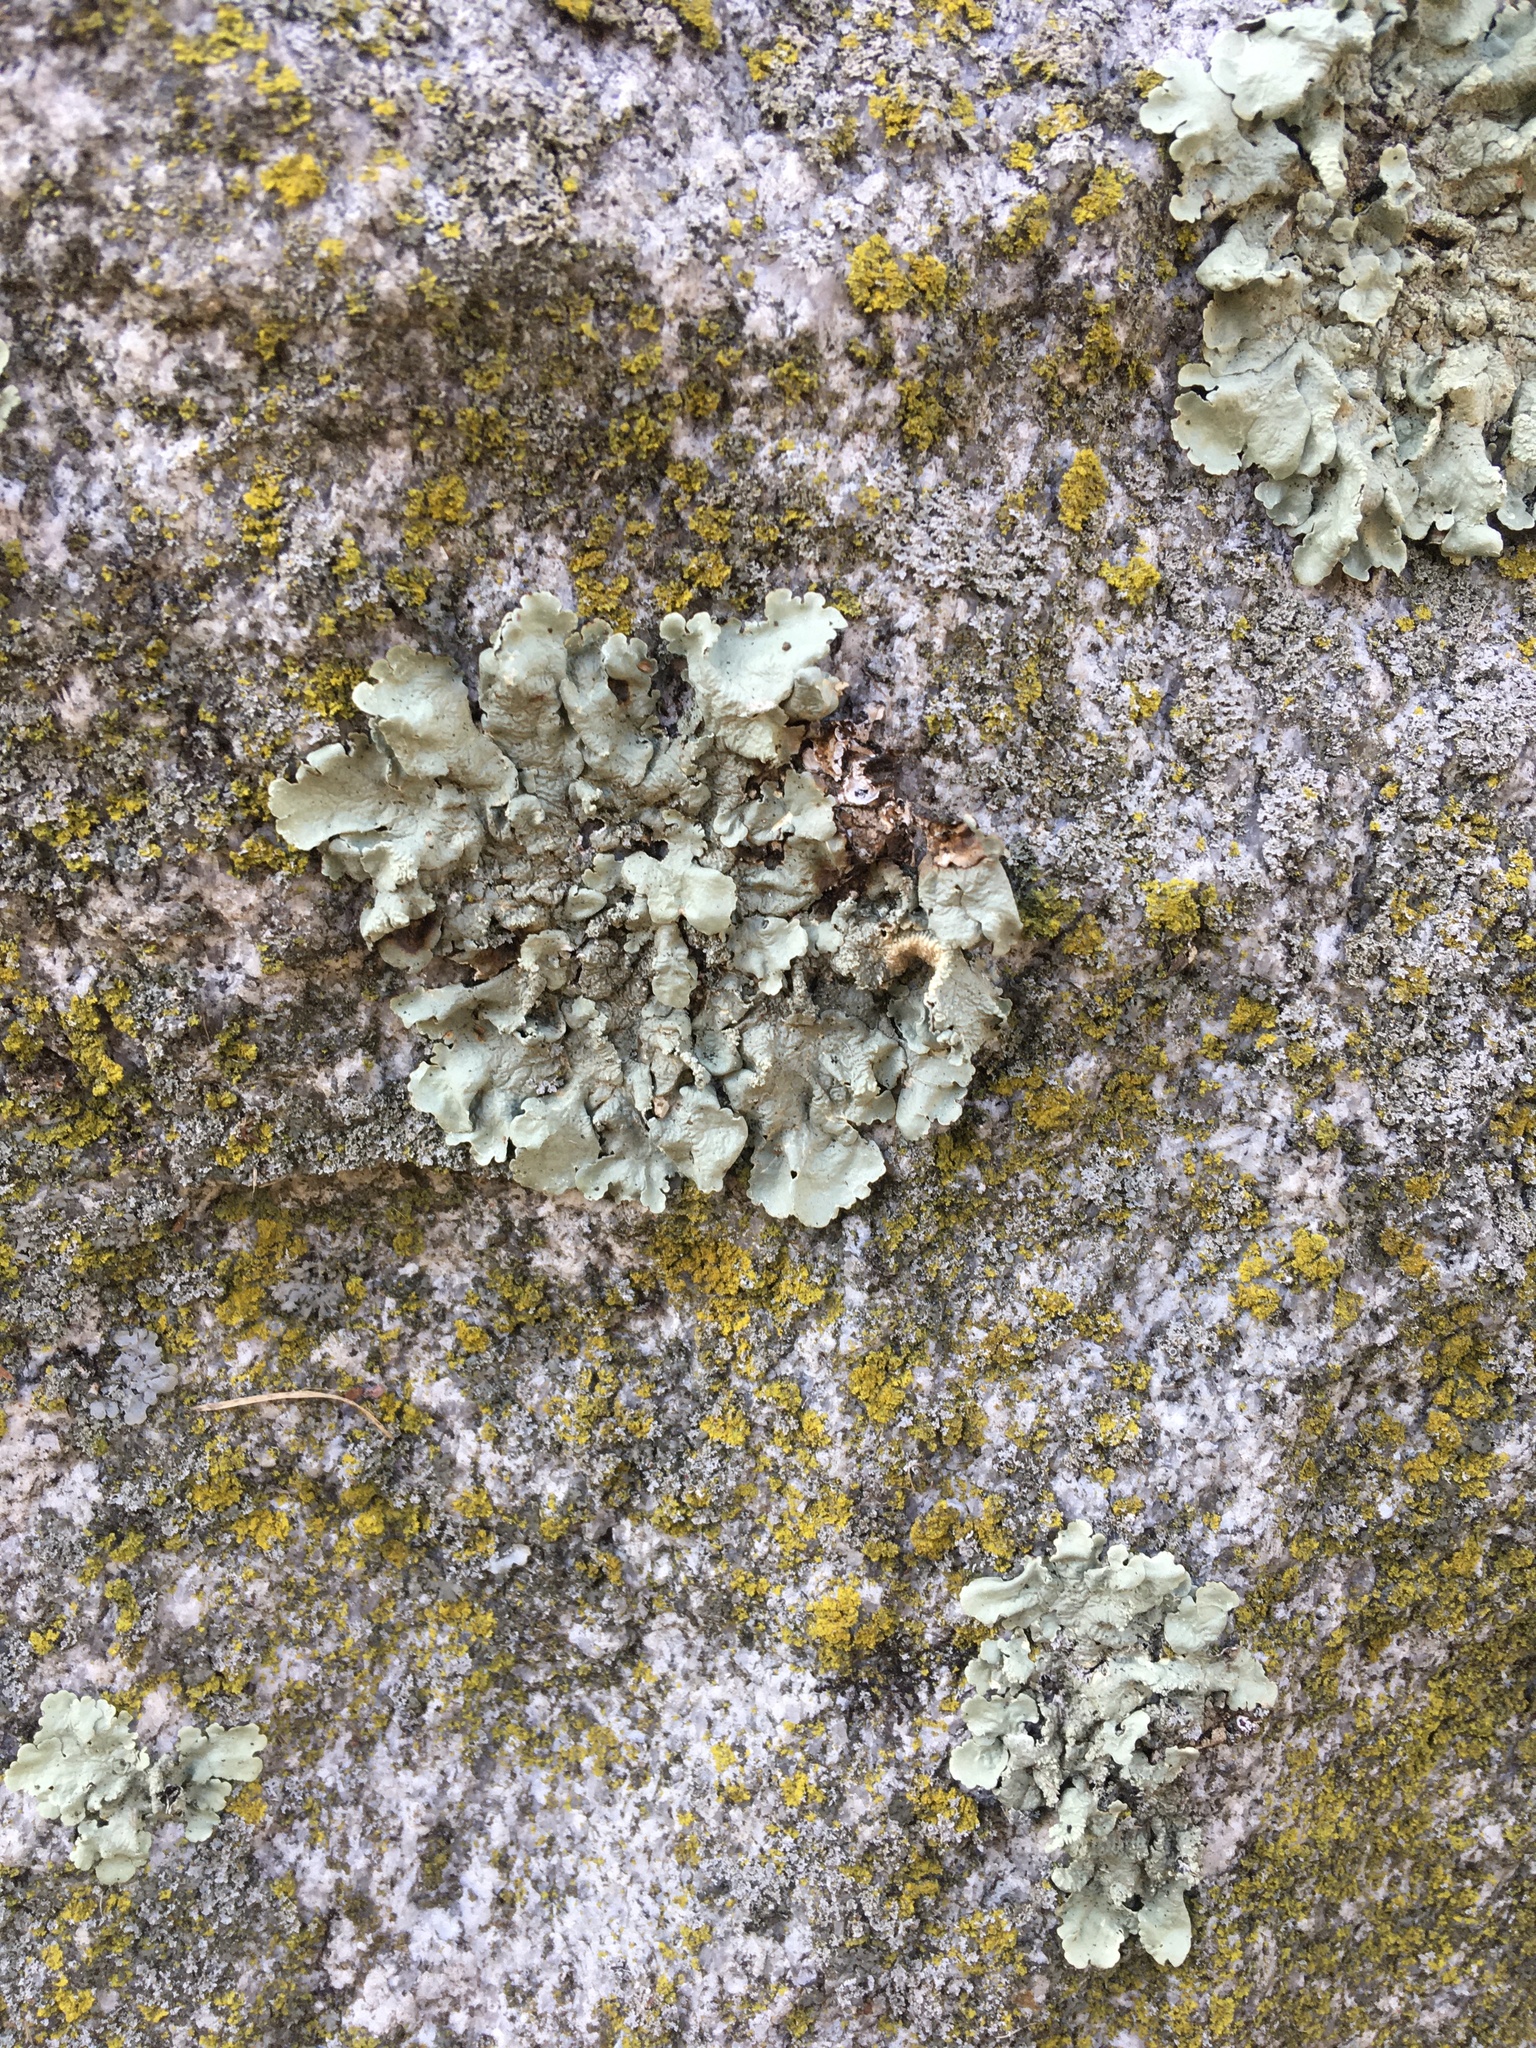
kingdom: Fungi
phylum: Ascomycota
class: Lecanoromycetes
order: Lecanorales
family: Parmeliaceae
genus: Flavoparmelia
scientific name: Flavoparmelia caperata
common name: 40-mile per hour lichen
